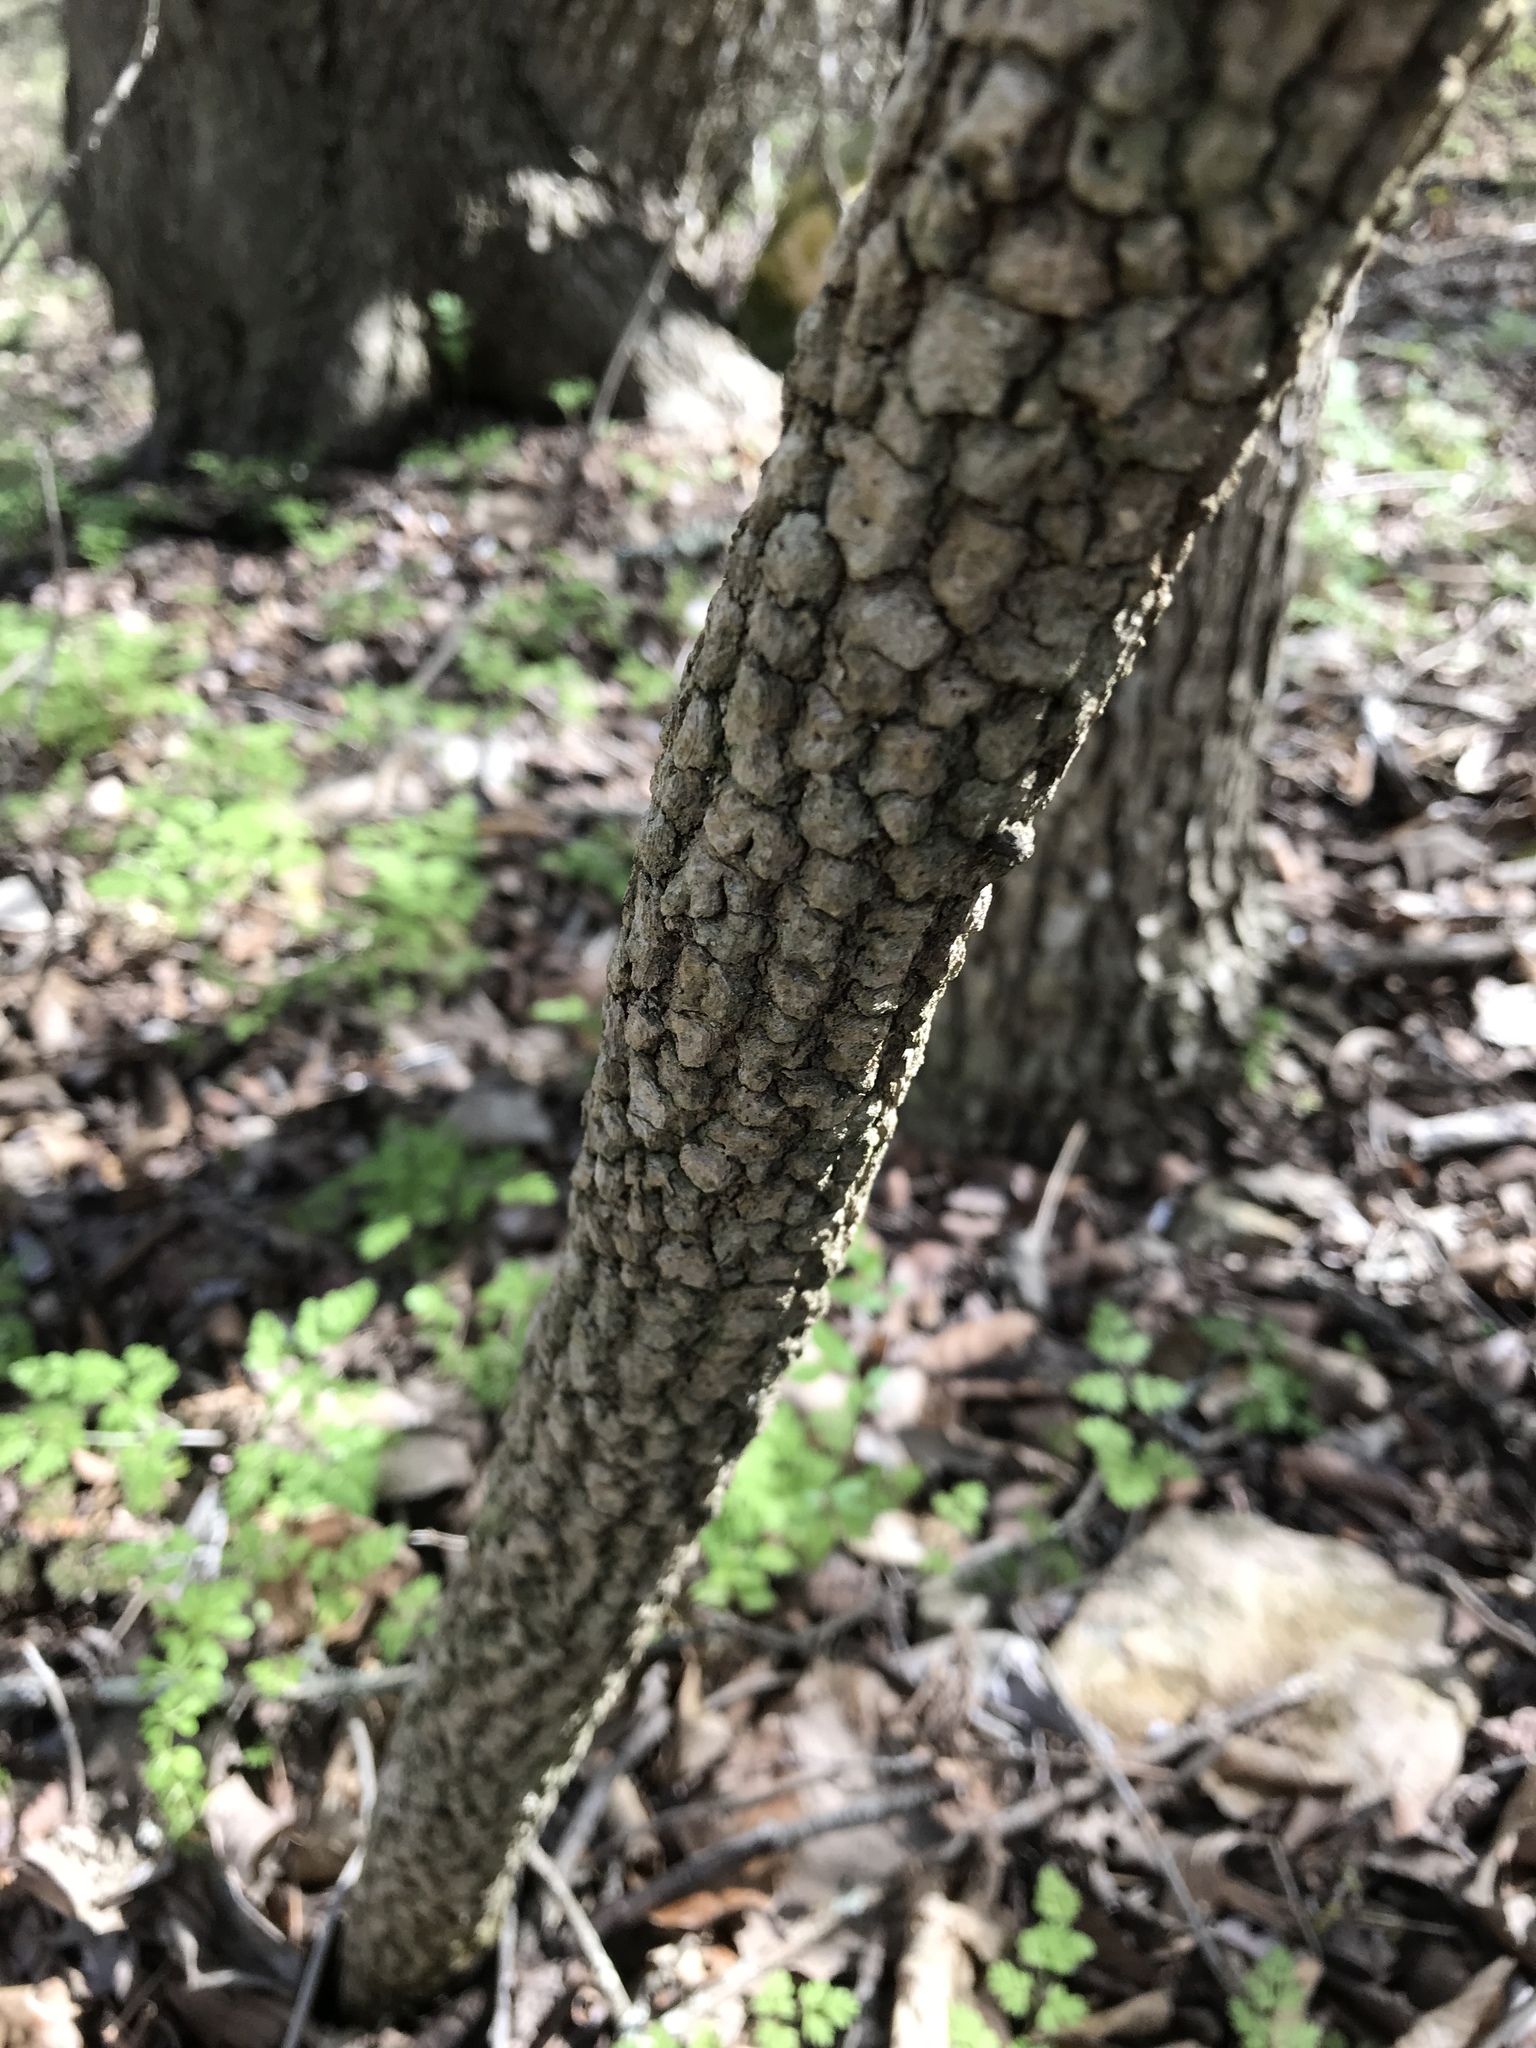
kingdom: Plantae
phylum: Tracheophyta
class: Magnoliopsida
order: Dipsacales
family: Viburnaceae
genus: Viburnum
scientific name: Viburnum rufidulum
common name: Blue haw
